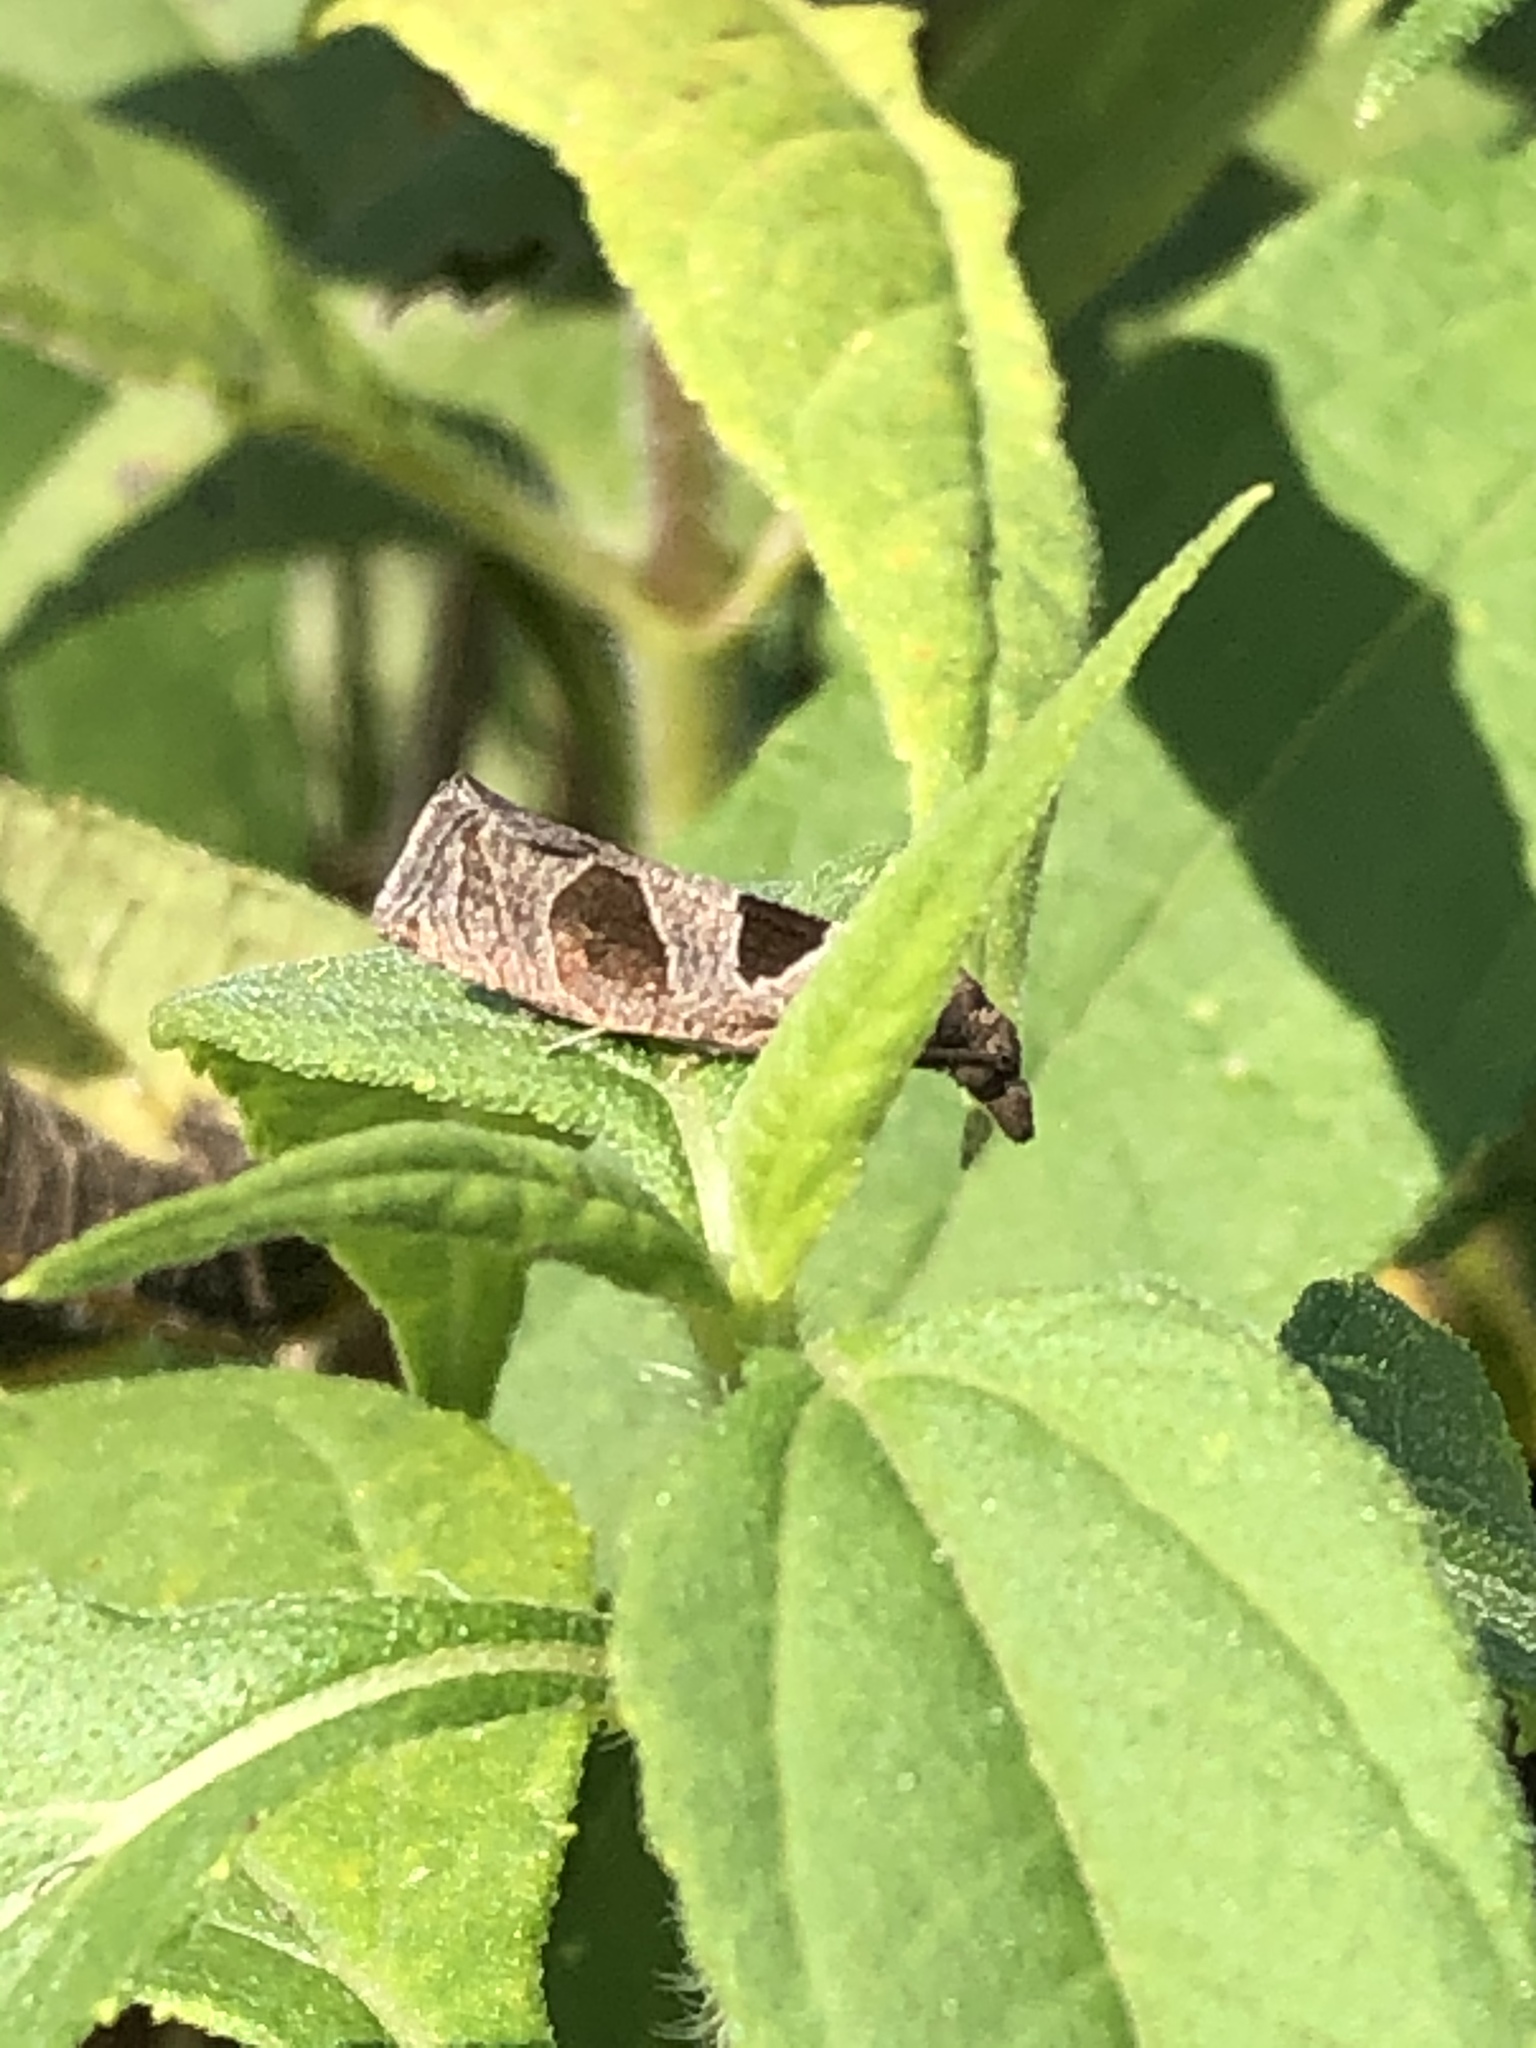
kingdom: Animalia
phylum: Arthropoda
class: Insecta
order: Lepidoptera
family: Tortricidae
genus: Pelochrista
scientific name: Pelochrista dorsisignatana
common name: Triangle-backed pelochrista moth
